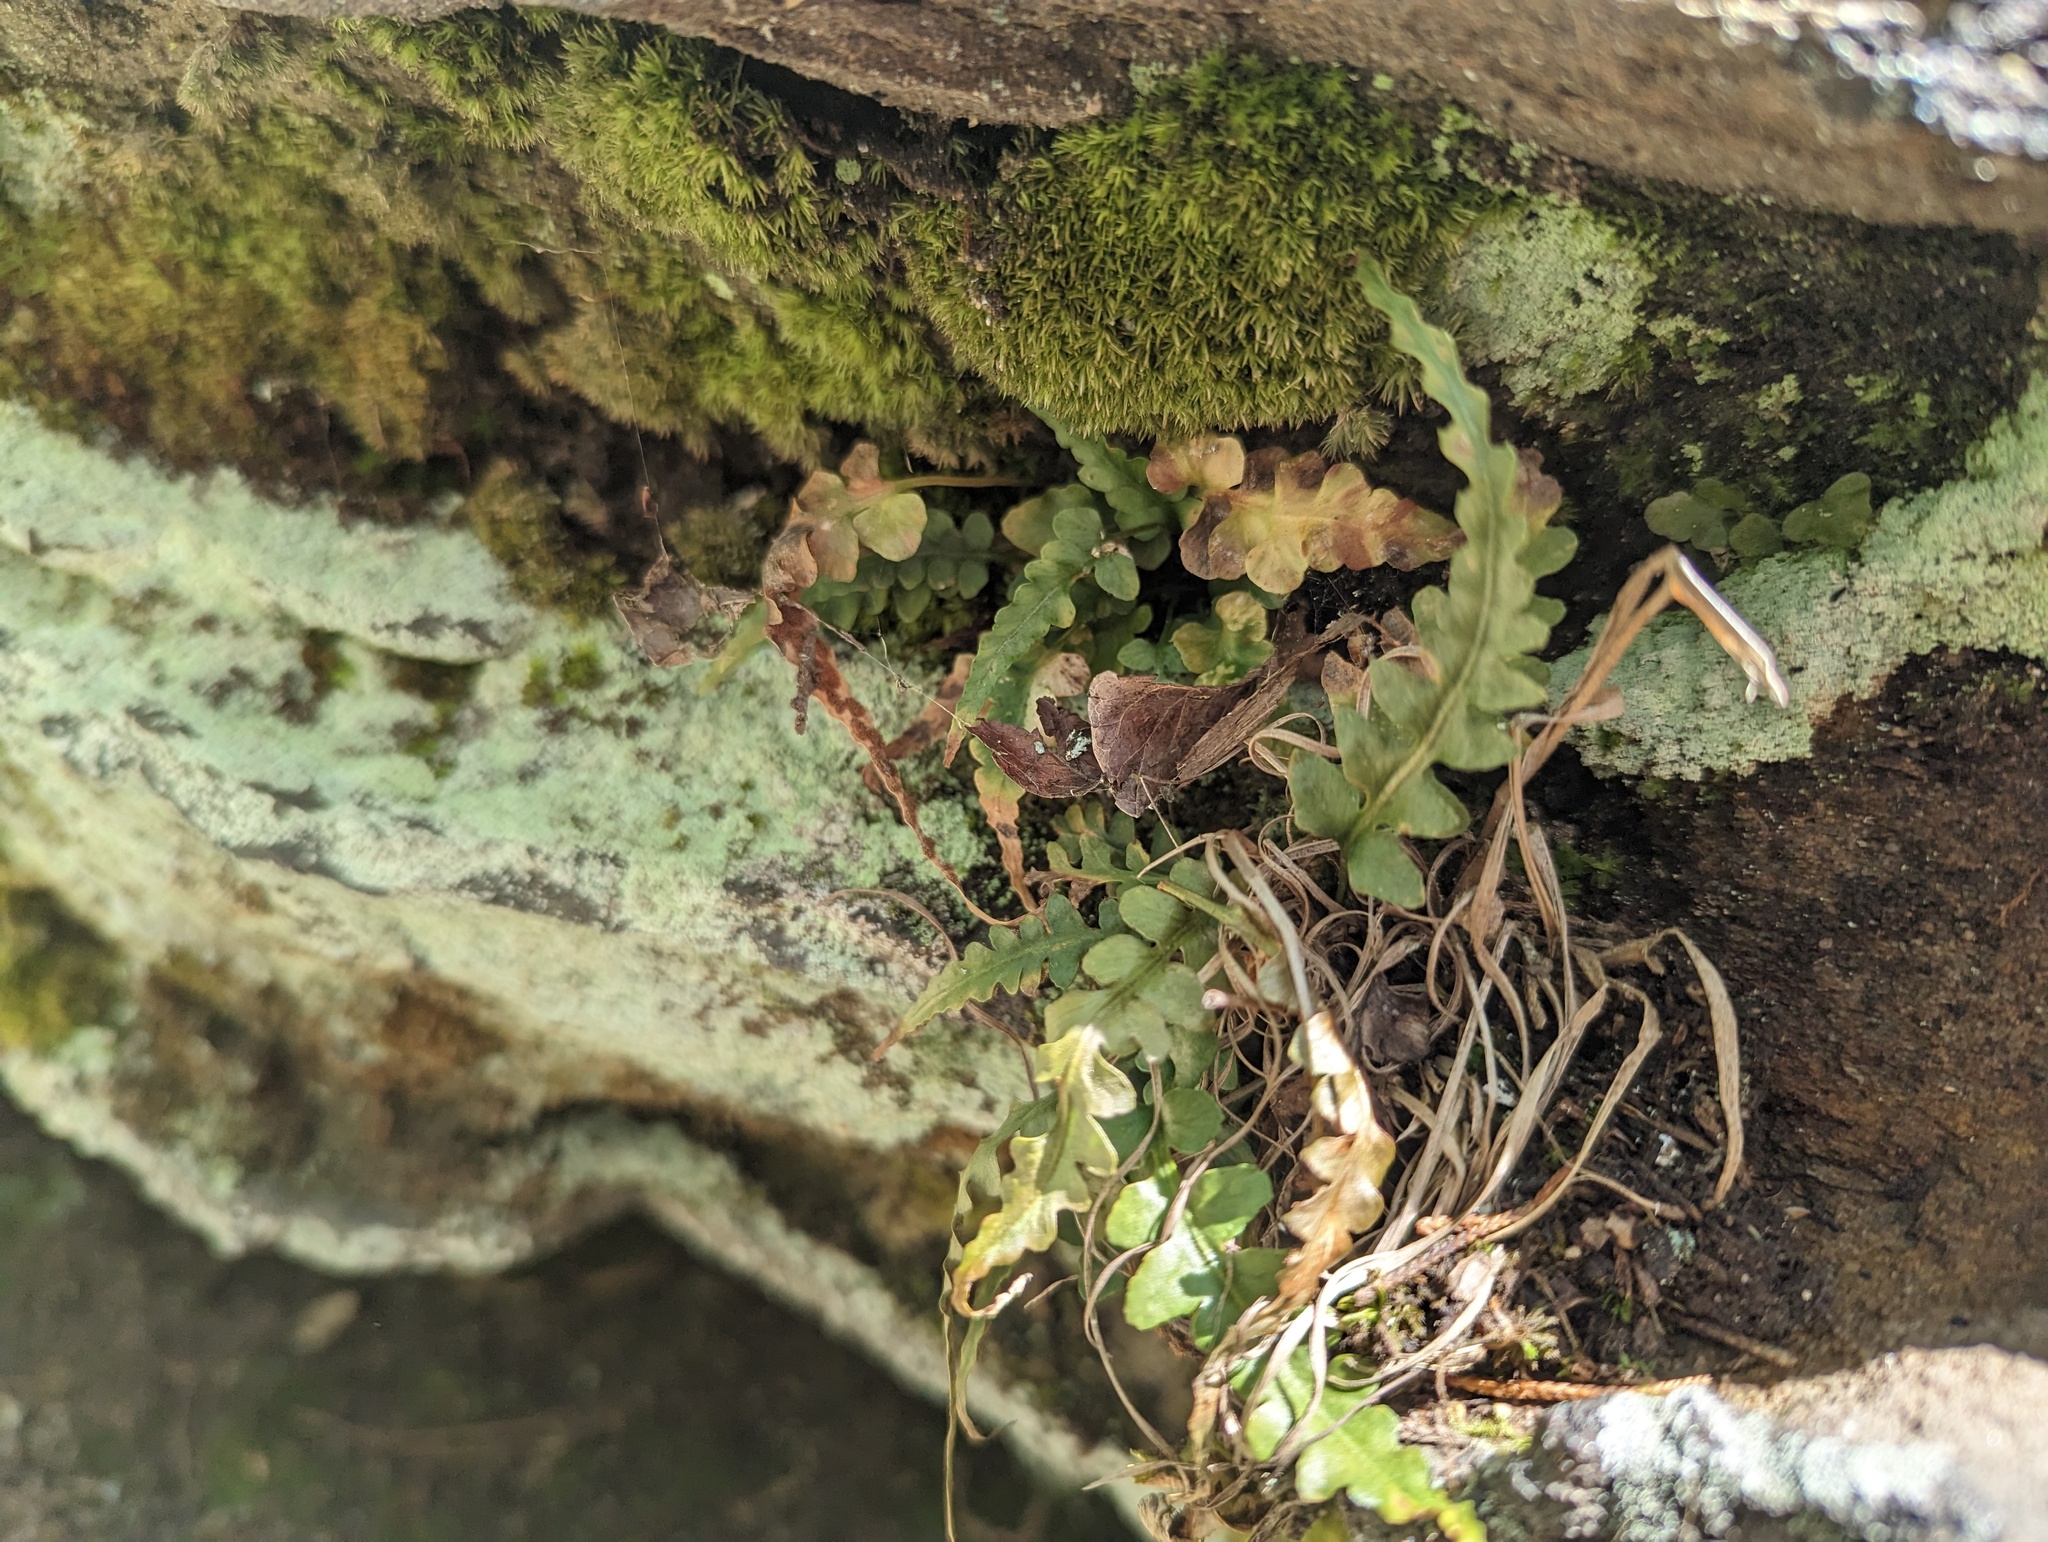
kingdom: Plantae
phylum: Tracheophyta
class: Polypodiopsida
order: Polypodiales
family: Aspleniaceae
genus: Asplenium
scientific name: Asplenium pinnatifidum
